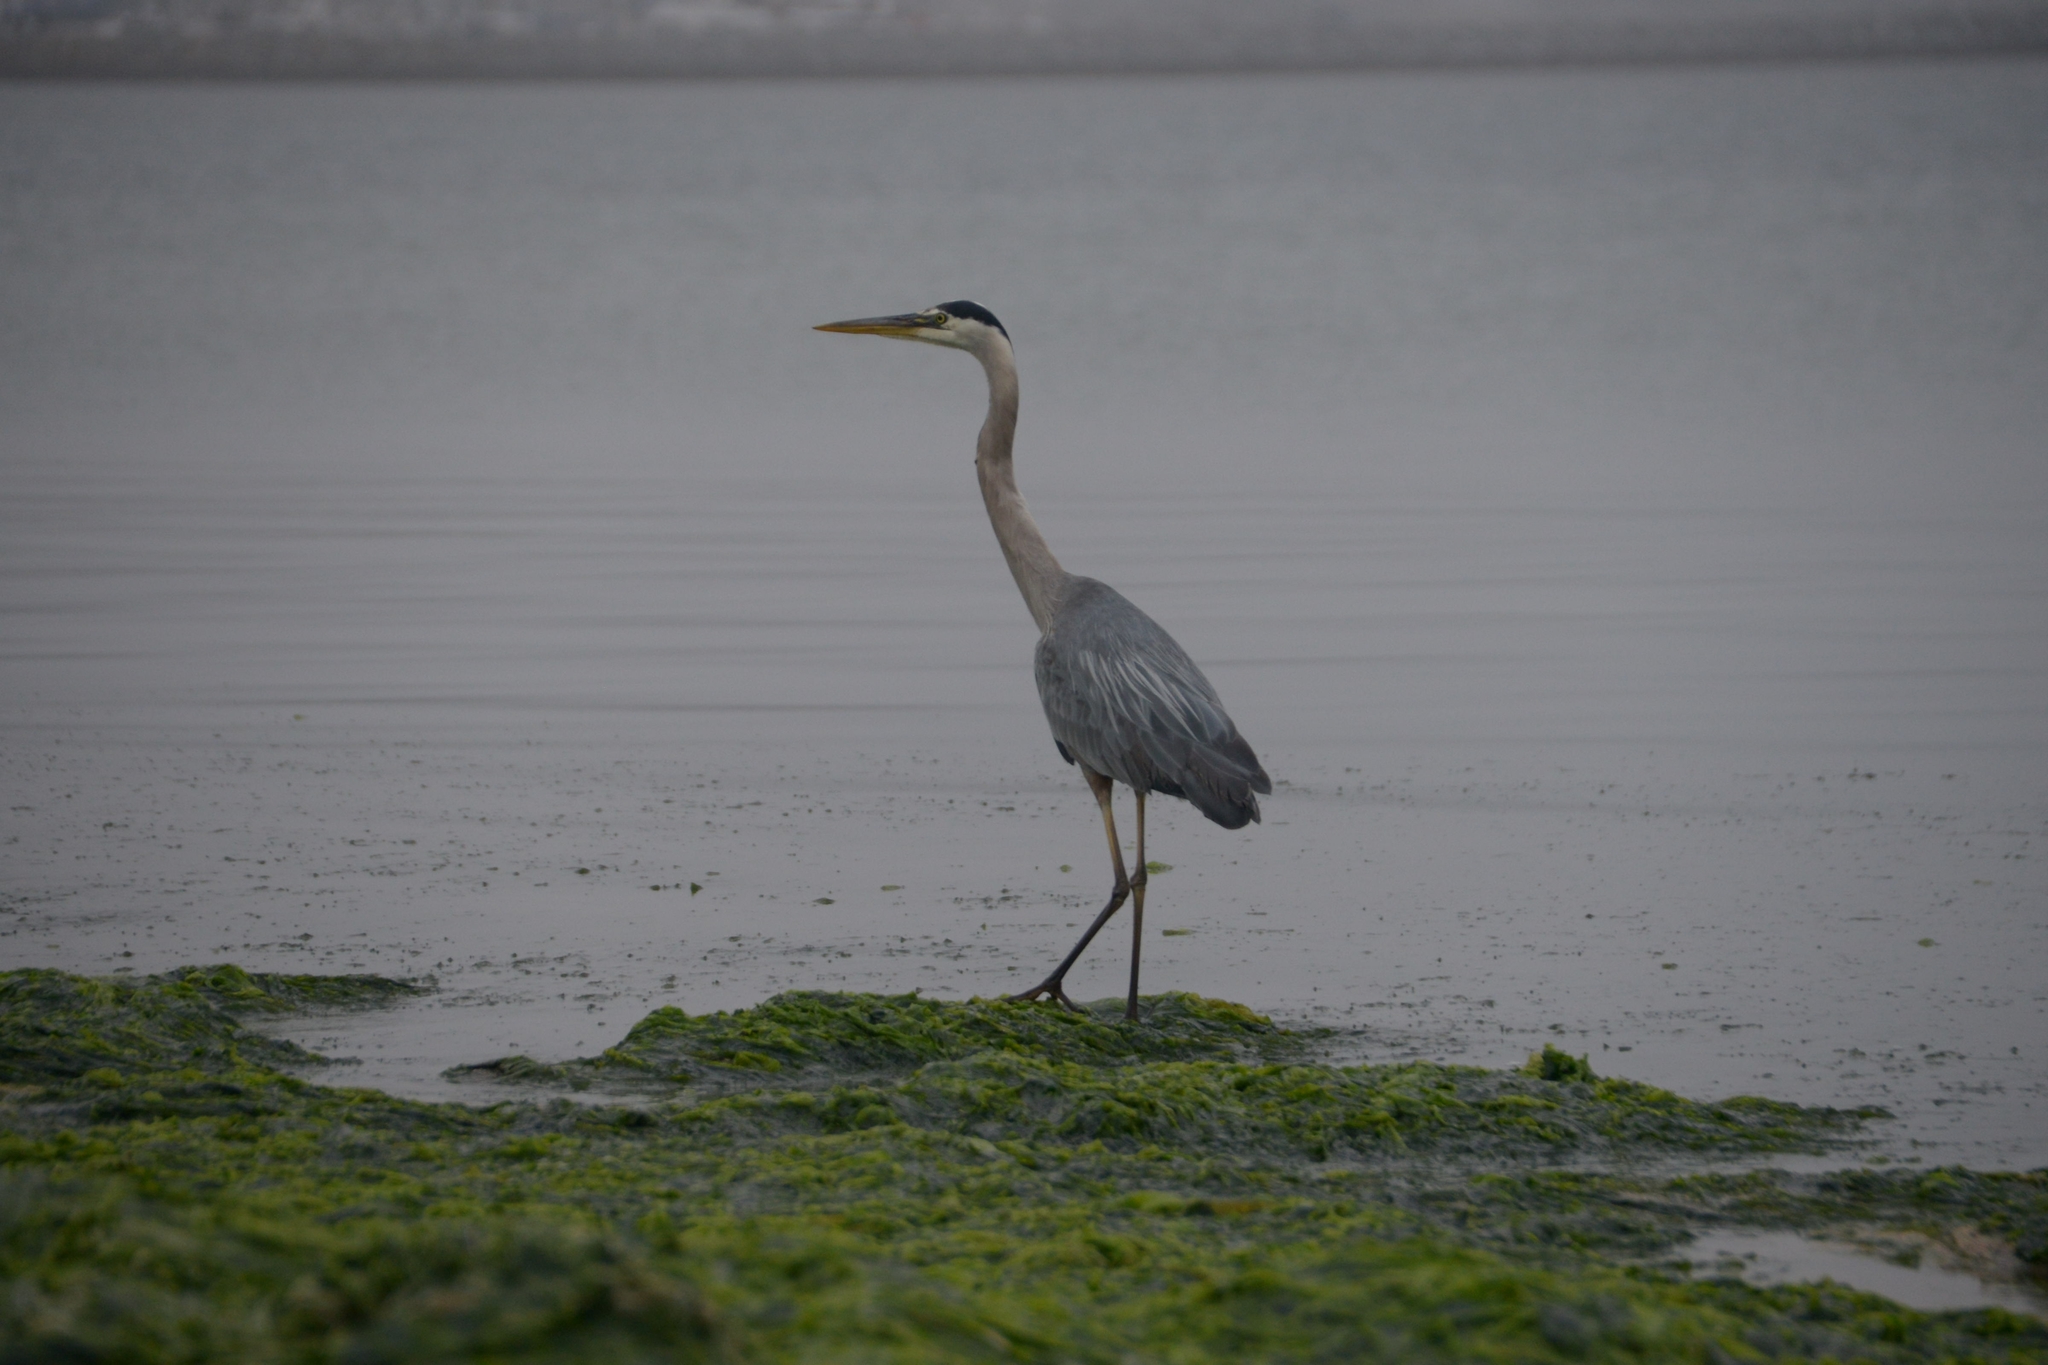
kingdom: Animalia
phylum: Chordata
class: Aves
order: Pelecaniformes
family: Ardeidae
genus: Ardea
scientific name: Ardea herodias
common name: Great blue heron
